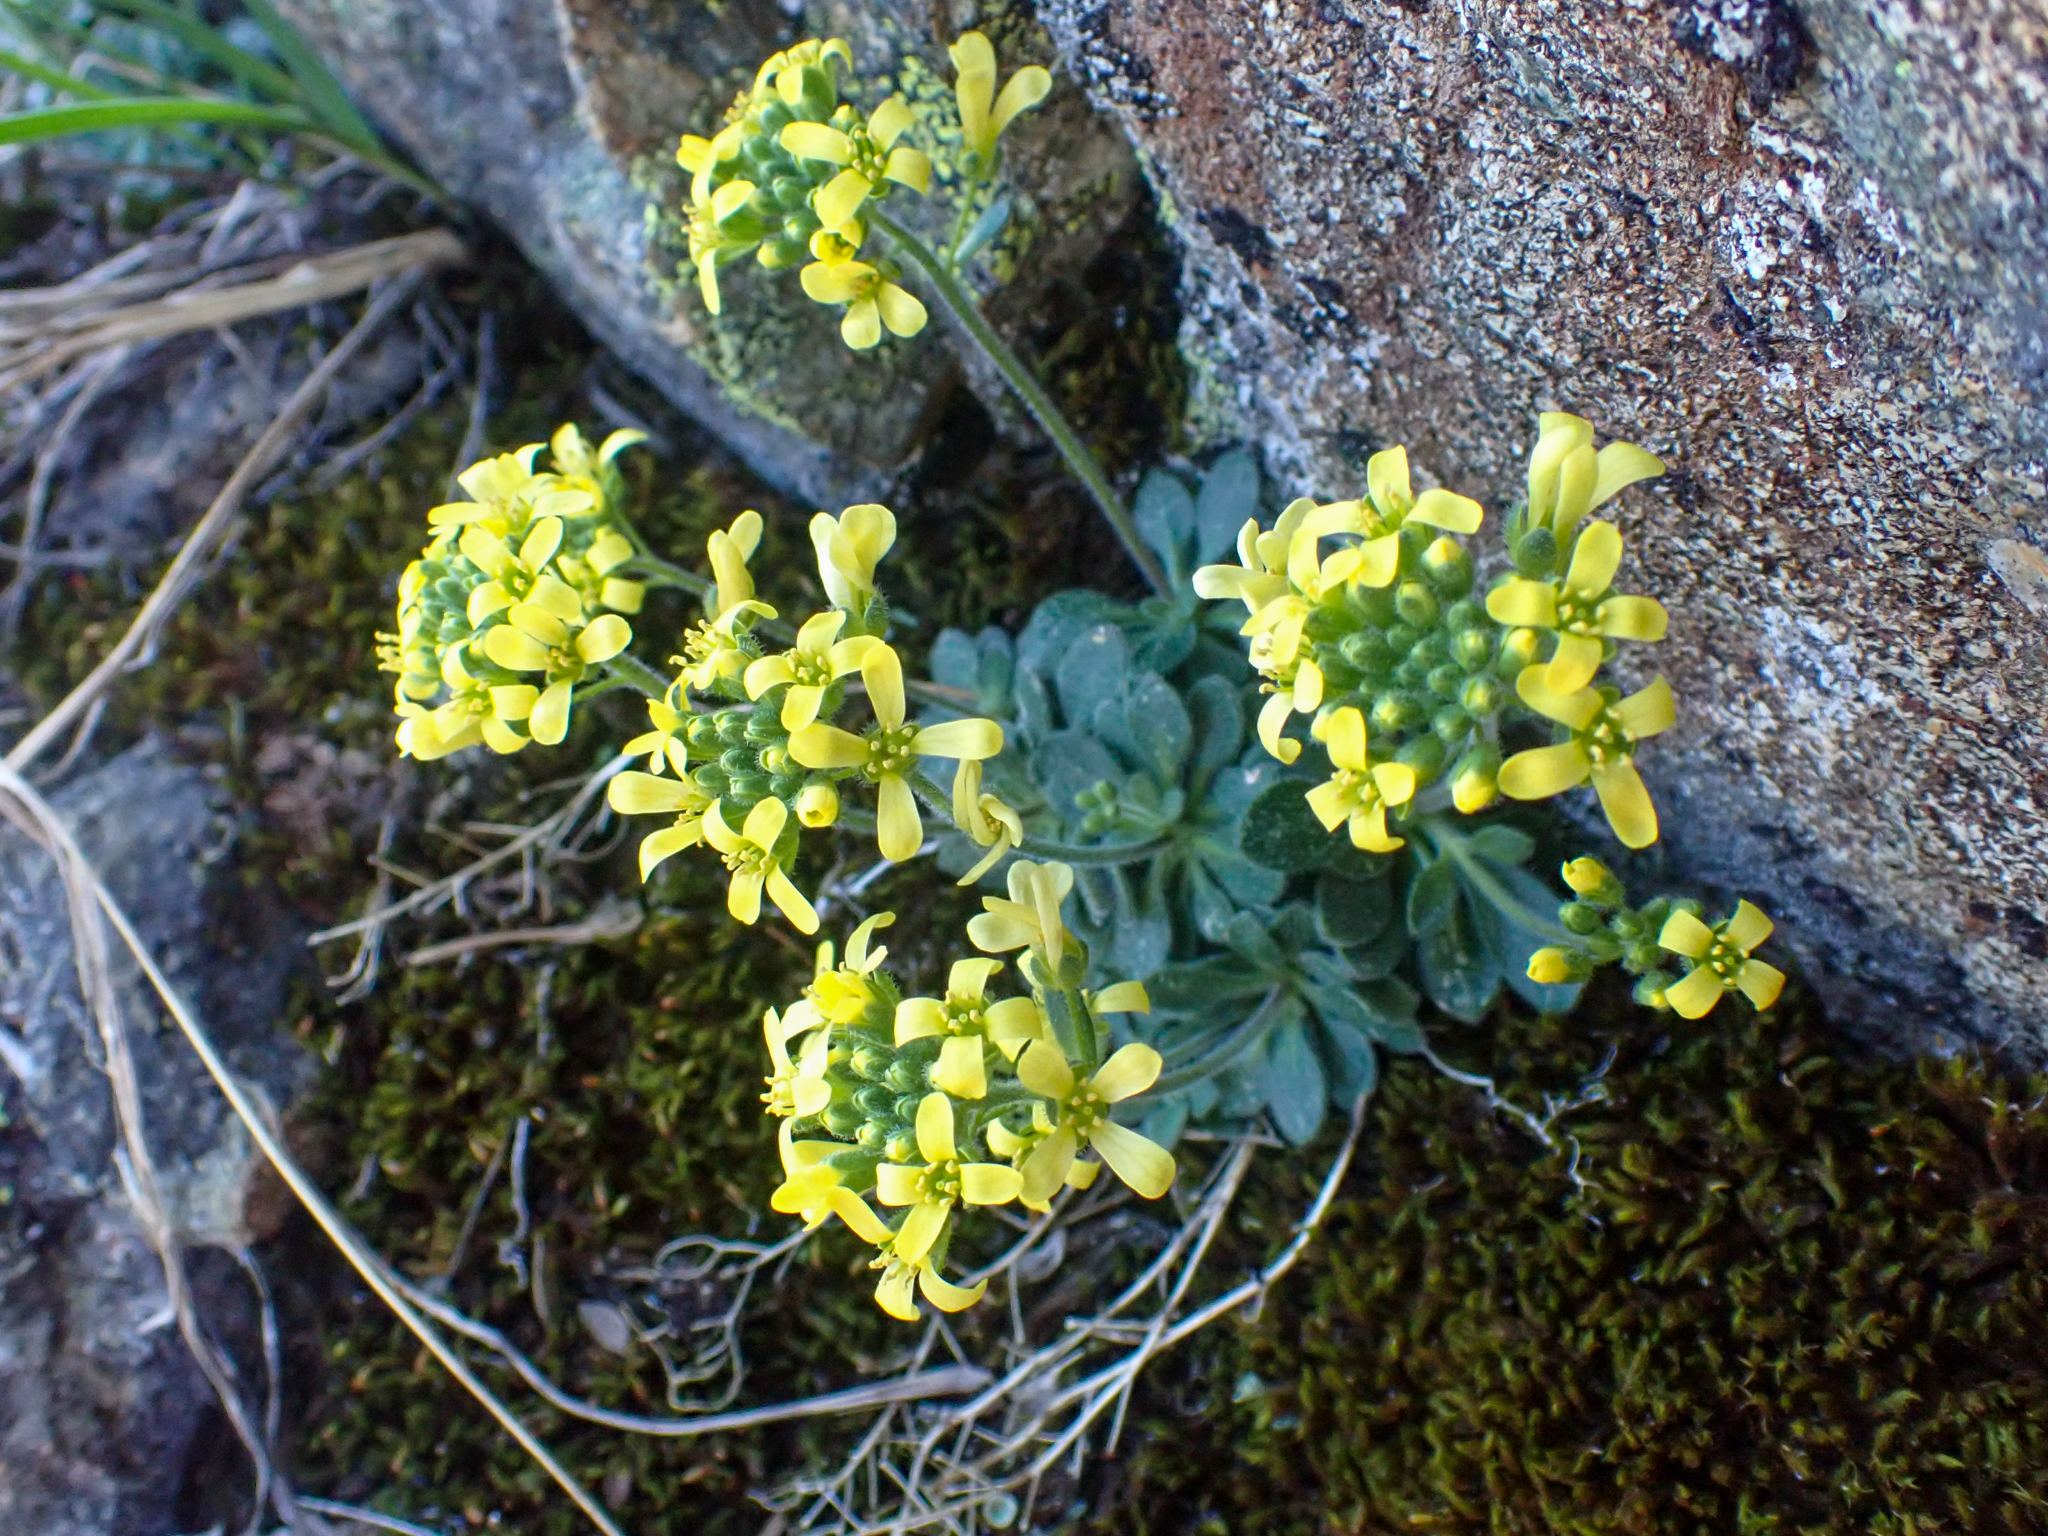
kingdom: Plantae
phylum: Tracheophyta
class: Magnoliopsida
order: Brassicales
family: Brassicaceae
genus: Draba
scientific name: Draba howellii
